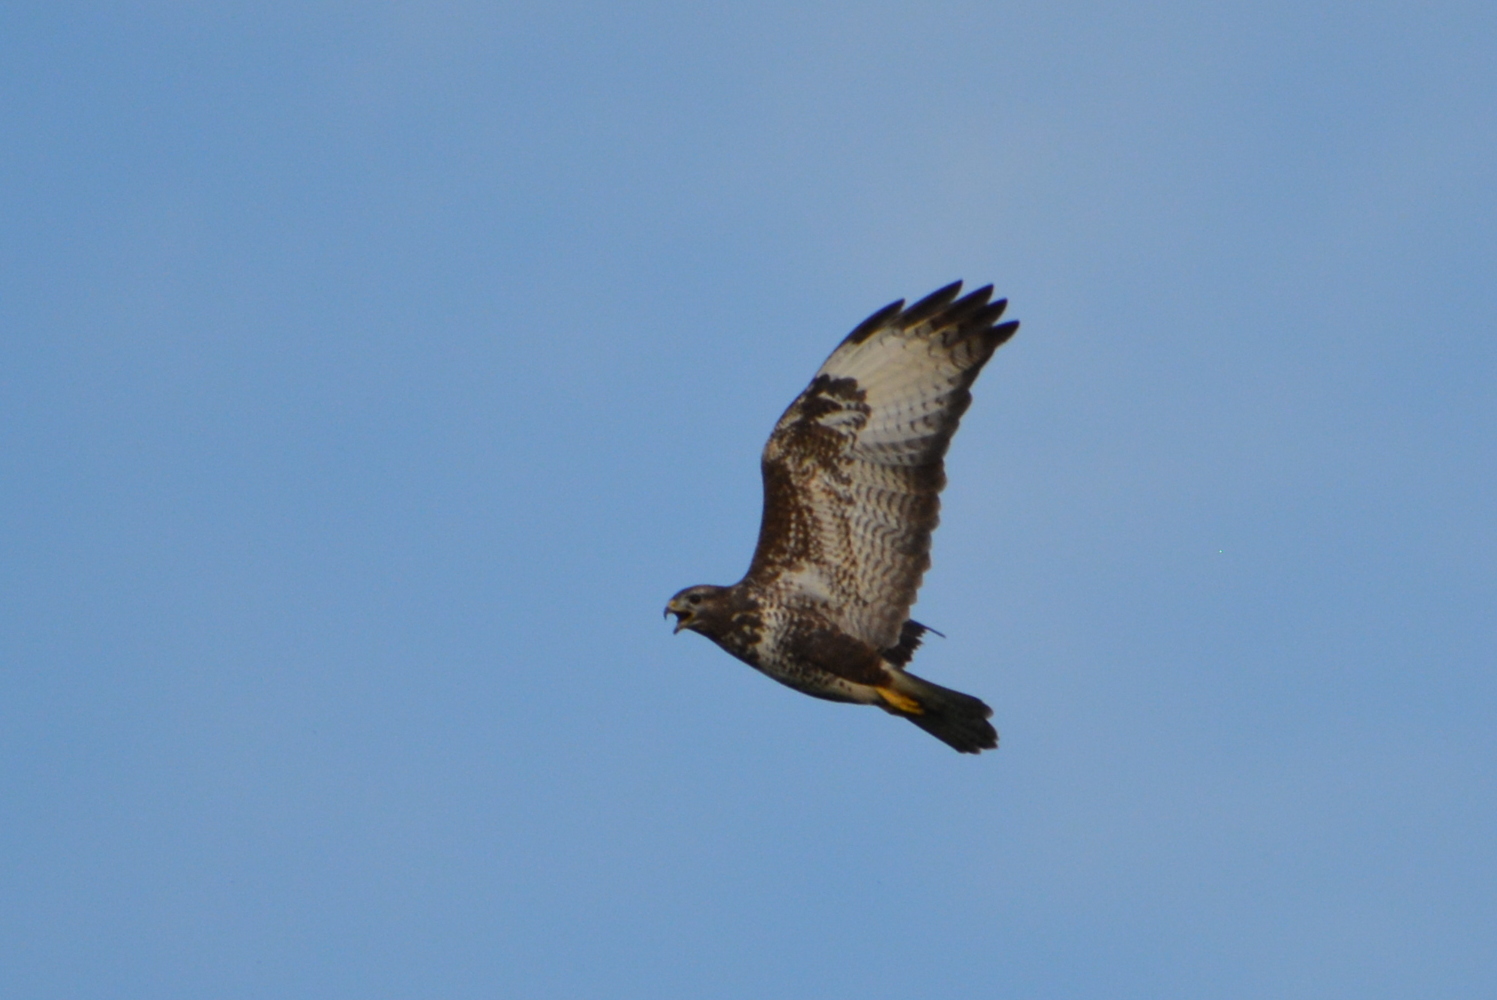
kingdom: Animalia
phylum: Chordata
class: Aves
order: Accipitriformes
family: Accipitridae
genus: Buteo
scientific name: Buteo buteo
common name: Common buzzard
